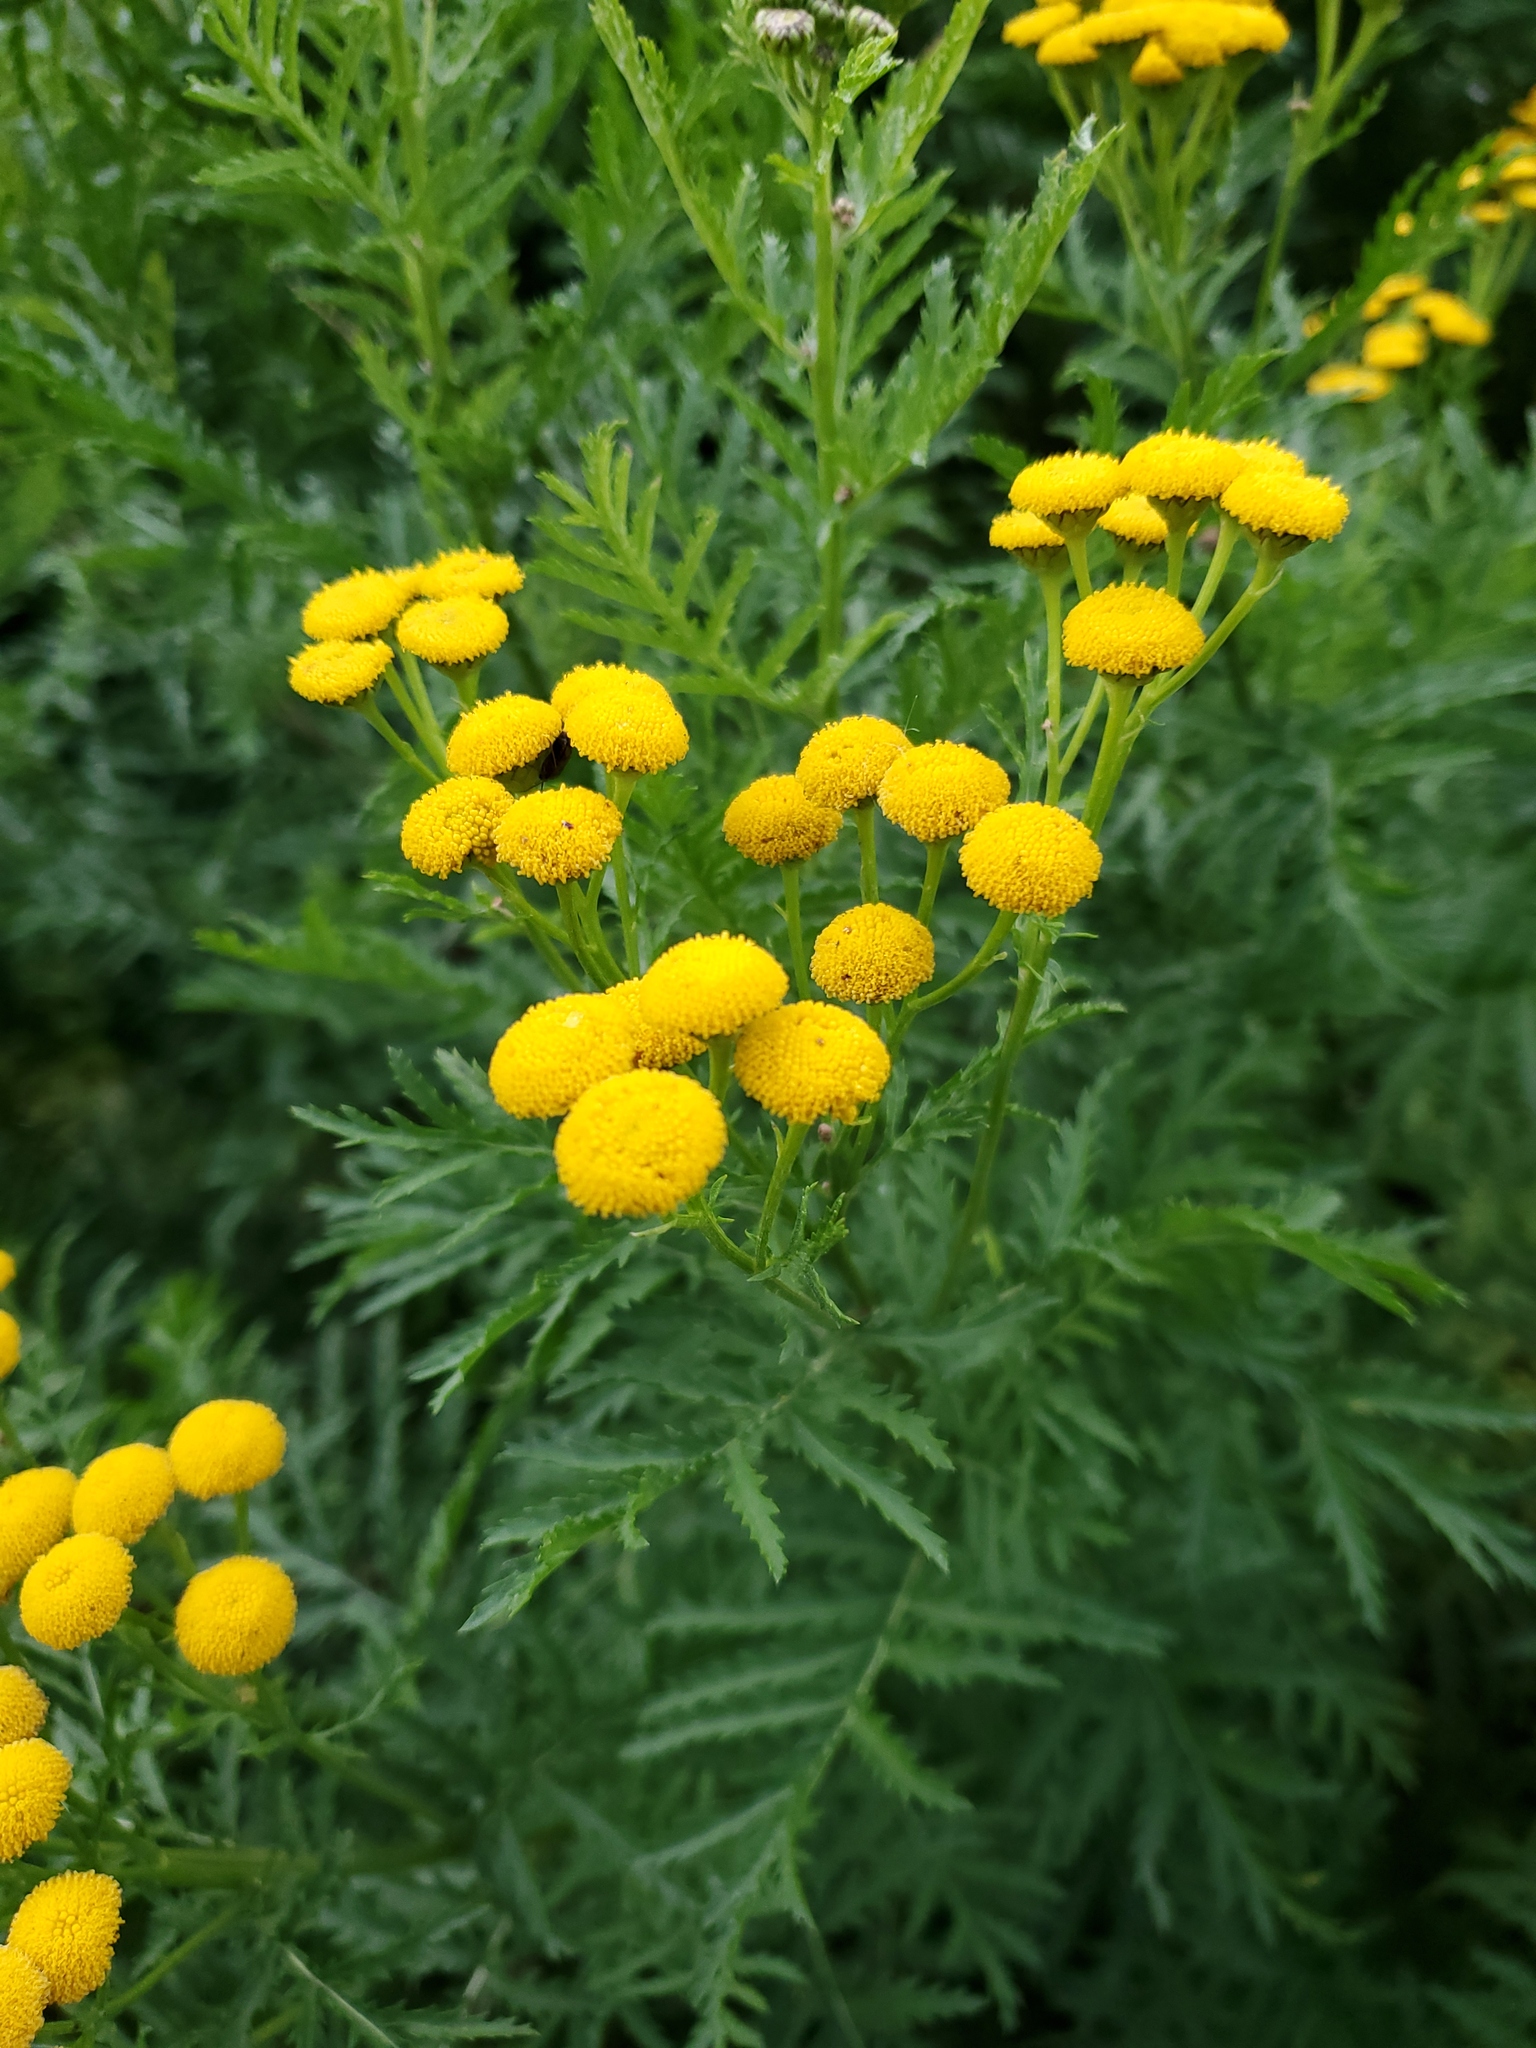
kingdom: Plantae
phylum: Tracheophyta
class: Magnoliopsida
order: Asterales
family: Asteraceae
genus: Tanacetum
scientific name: Tanacetum vulgare
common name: Common tansy
